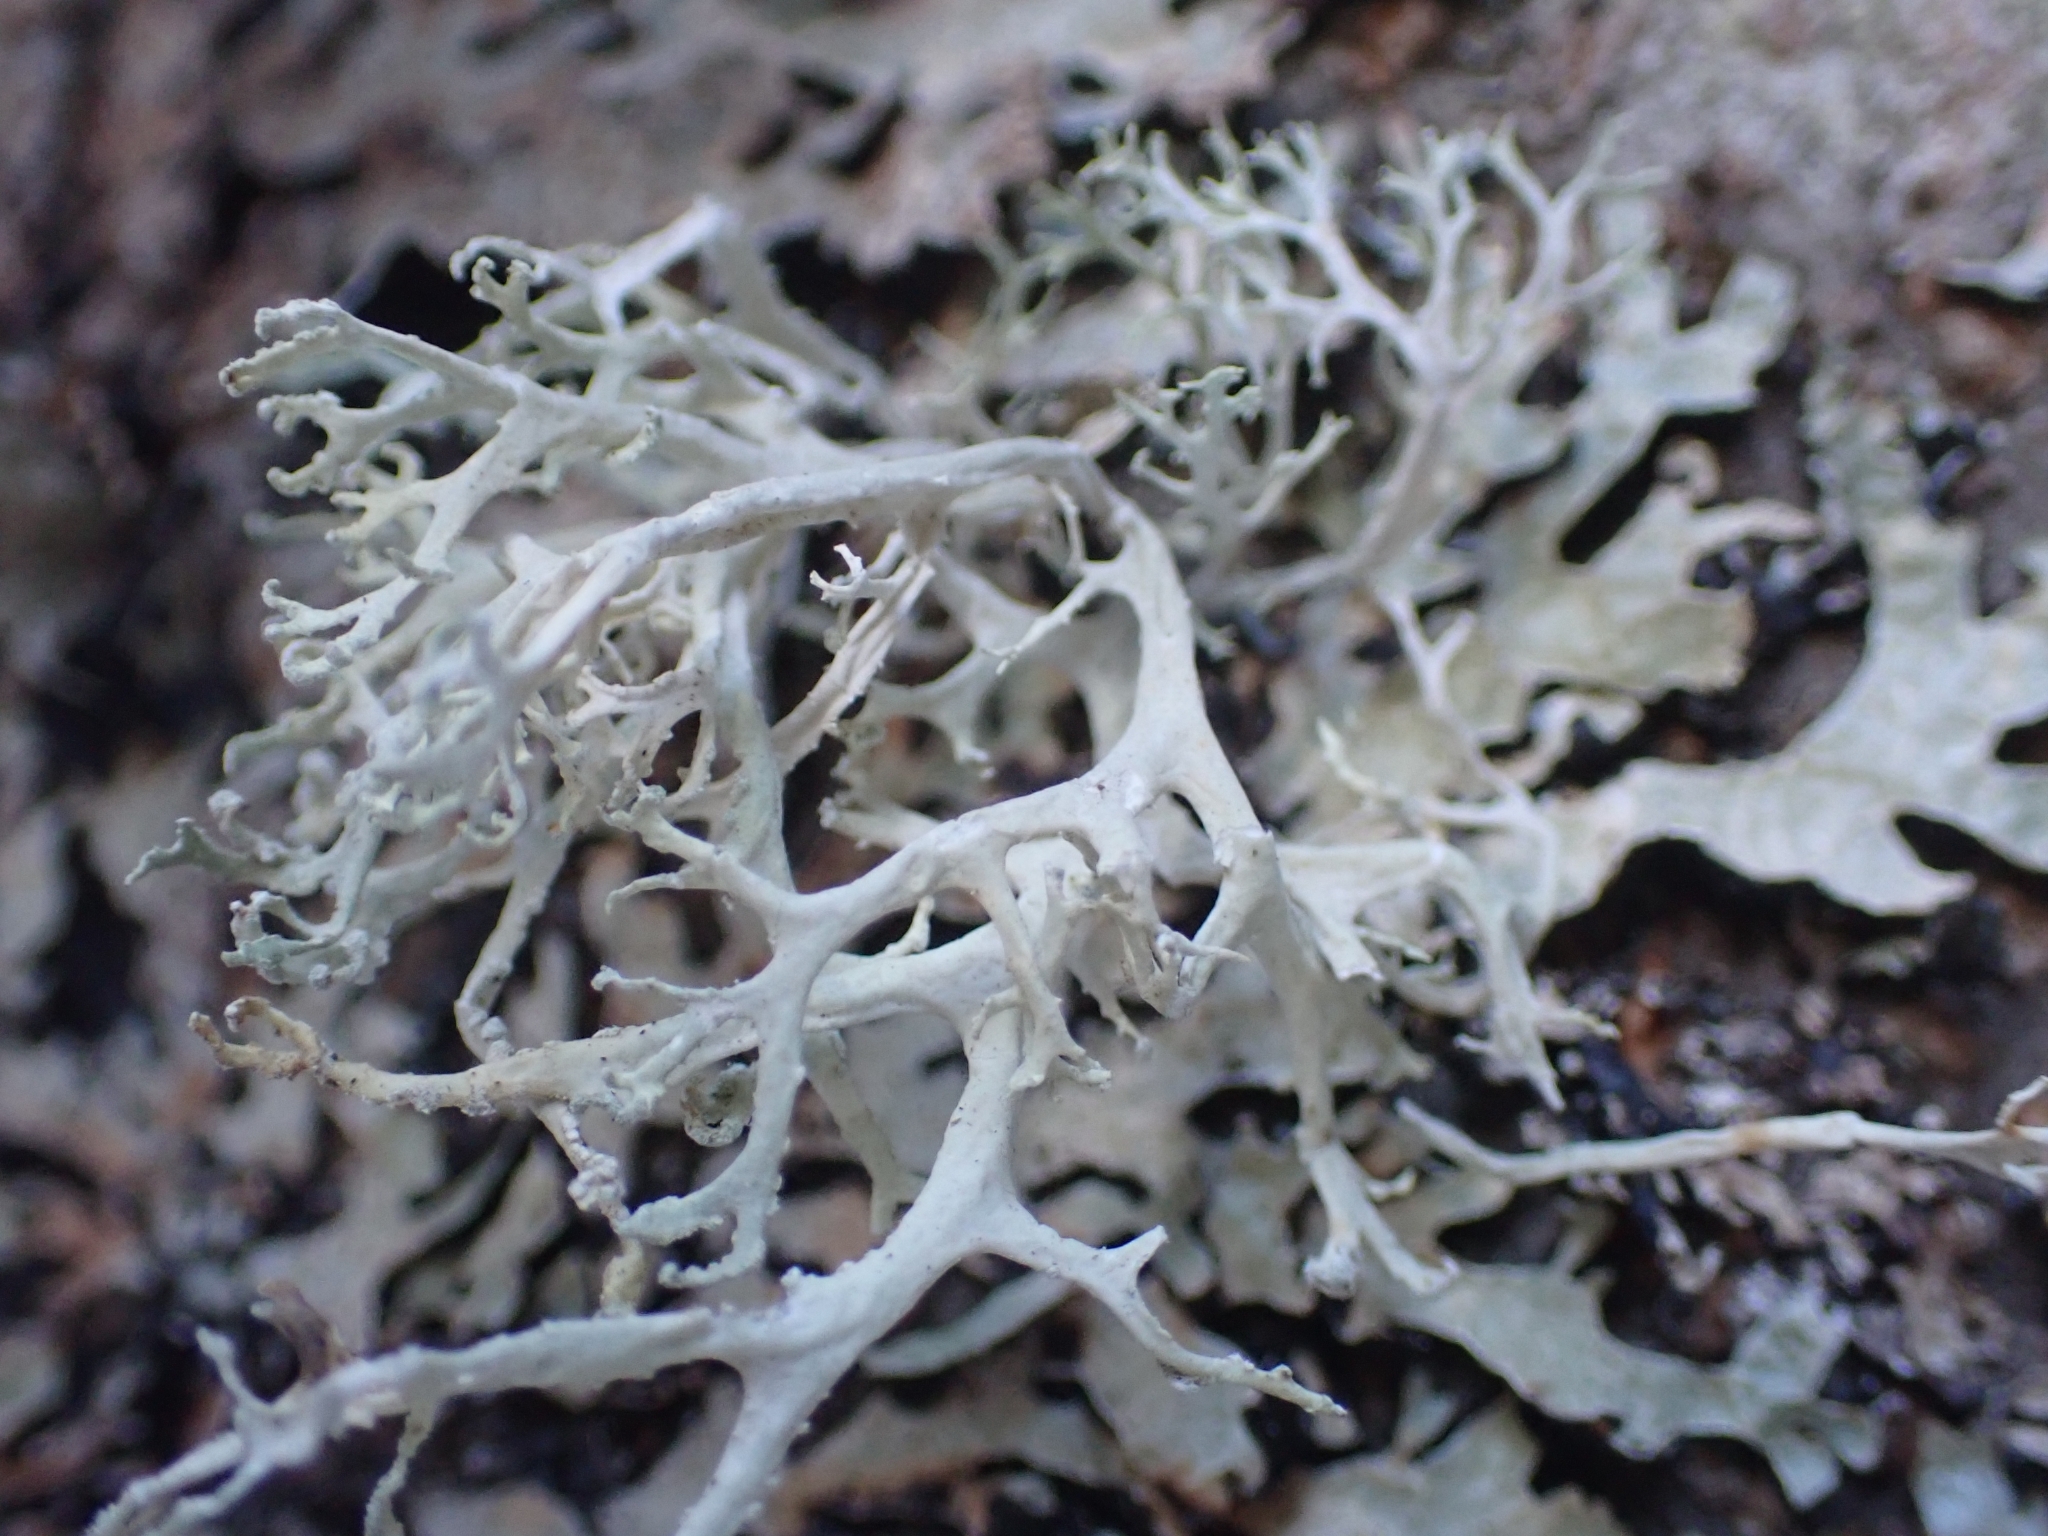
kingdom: Fungi
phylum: Ascomycota
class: Lecanoromycetes
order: Lecanorales
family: Parmeliaceae
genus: Evernia
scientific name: Evernia prunastri
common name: Oak moss
